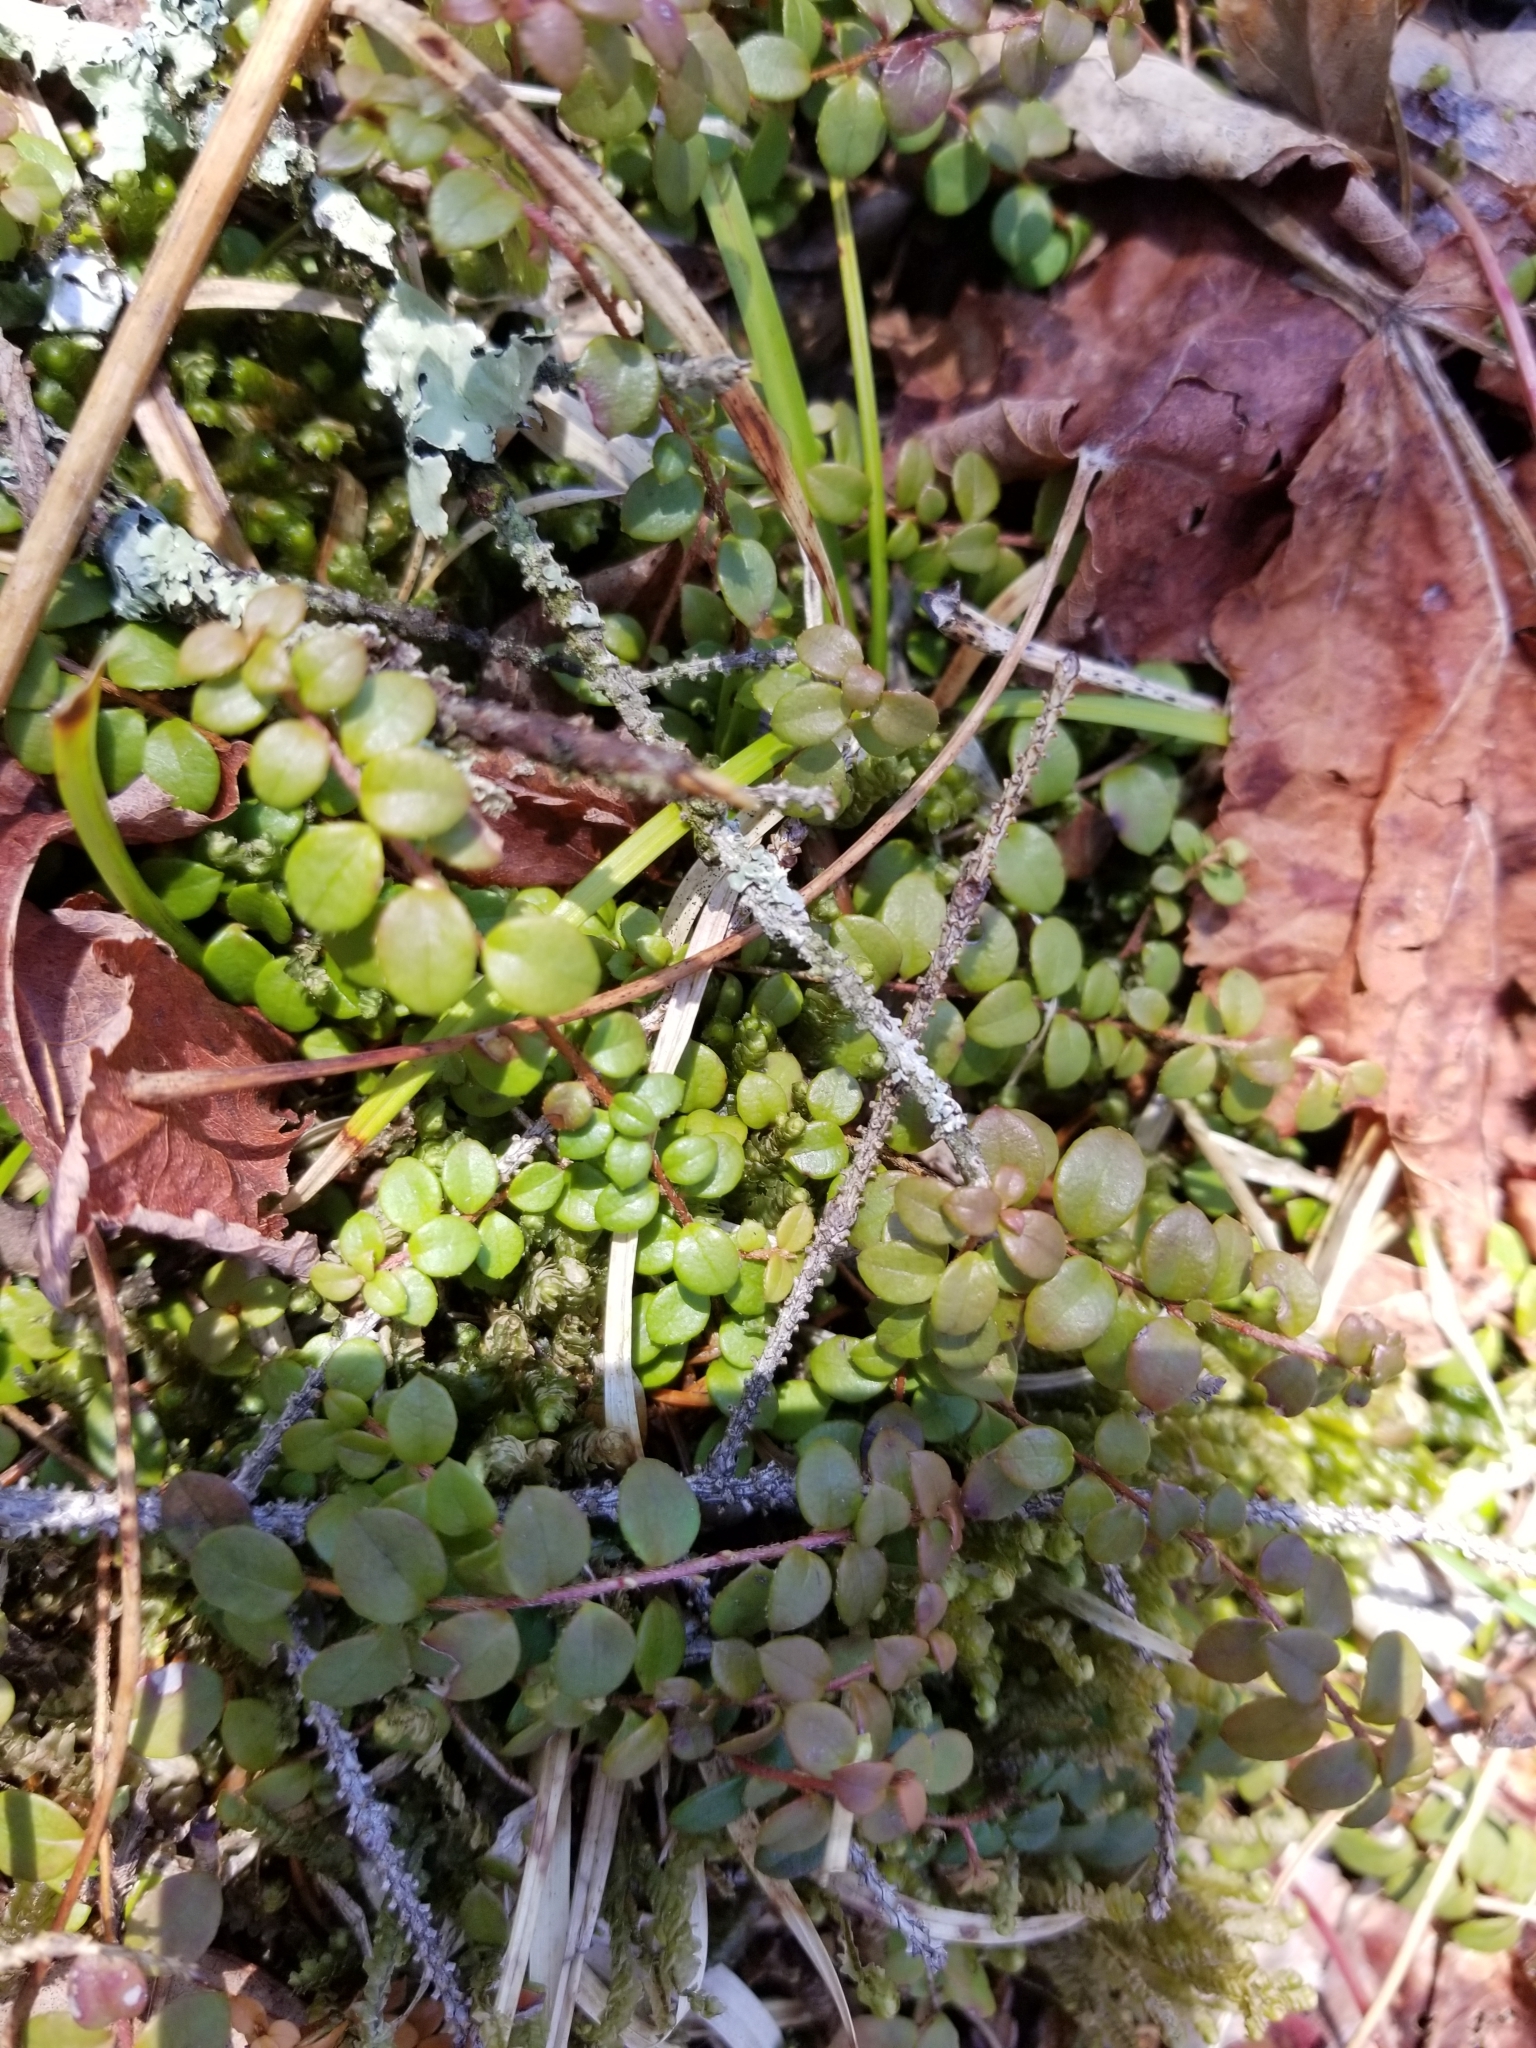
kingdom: Plantae
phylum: Tracheophyta
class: Magnoliopsida
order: Ericales
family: Ericaceae
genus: Gaultheria
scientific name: Gaultheria hispidula
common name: Cancer wintergreen
